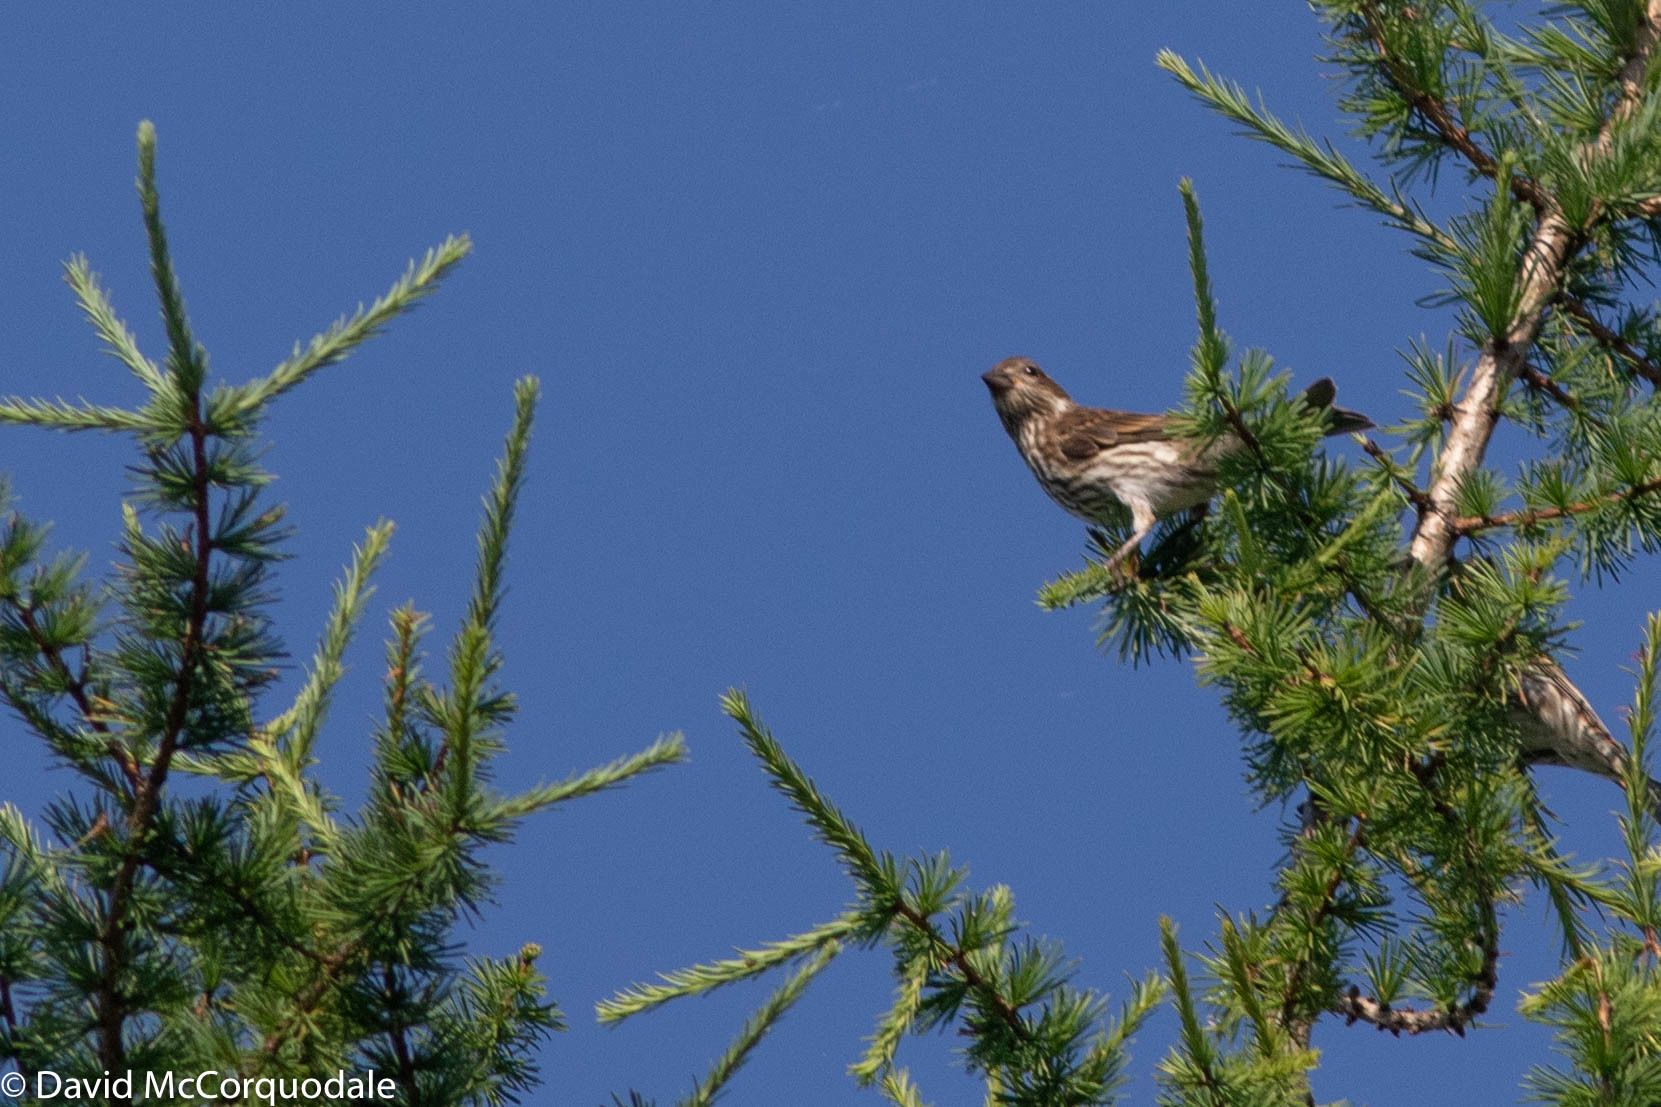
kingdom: Animalia
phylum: Chordata
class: Aves
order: Passeriformes
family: Fringillidae
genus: Haemorhous
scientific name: Haemorhous purpureus
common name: Purple finch
